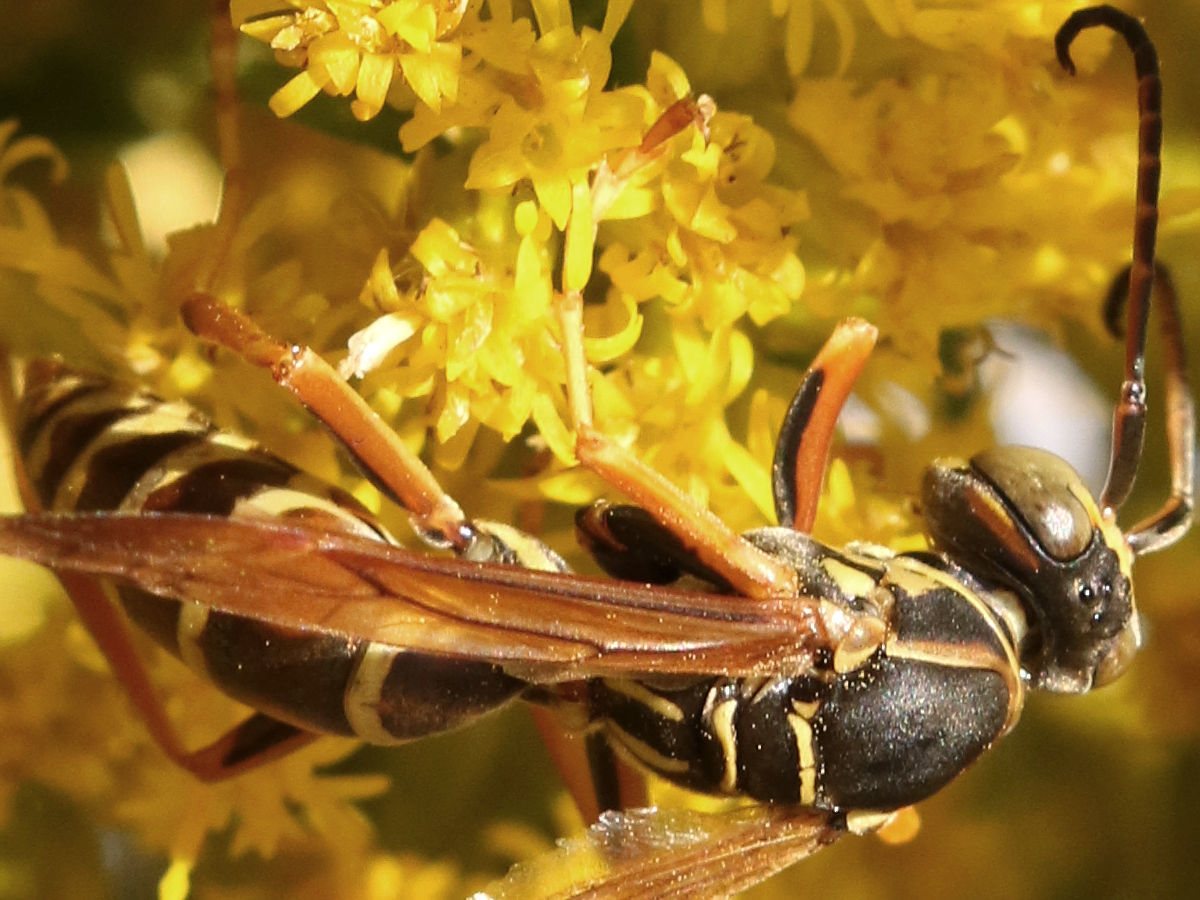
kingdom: Animalia
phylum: Arthropoda
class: Insecta
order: Hymenoptera
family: Eumenidae
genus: Polistes
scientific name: Polistes fuscatus
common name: Dark paper wasp
